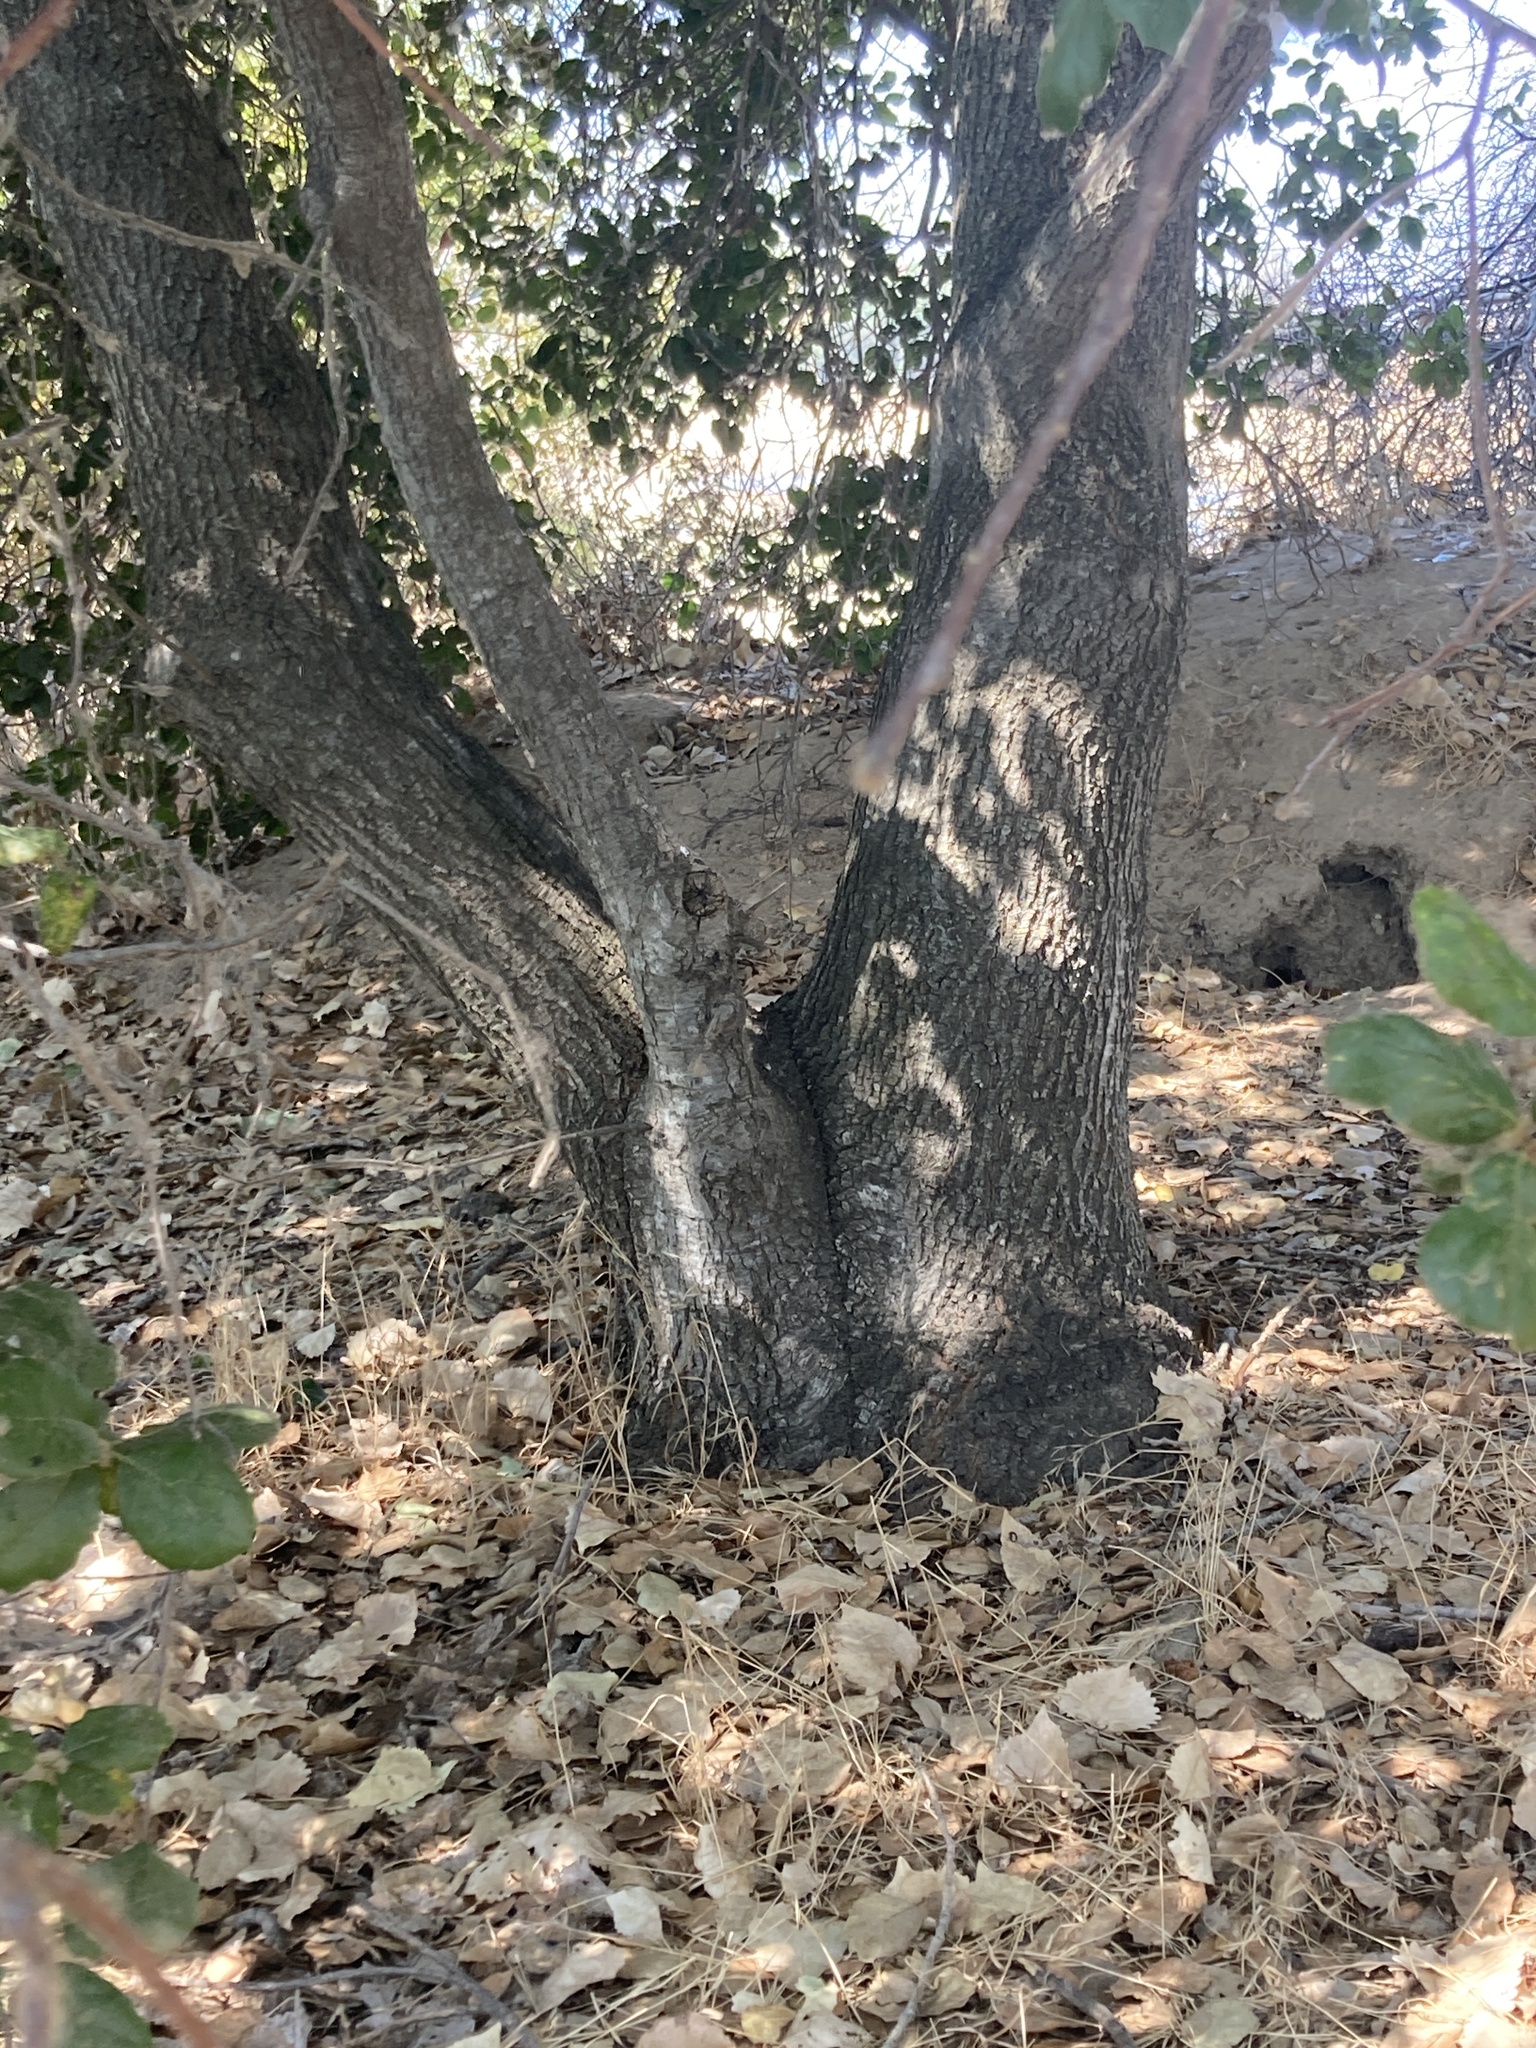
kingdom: Plantae
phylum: Tracheophyta
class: Magnoliopsida
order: Fagales
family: Fagaceae
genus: Quercus
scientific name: Quercus agrifolia
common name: California live oak
